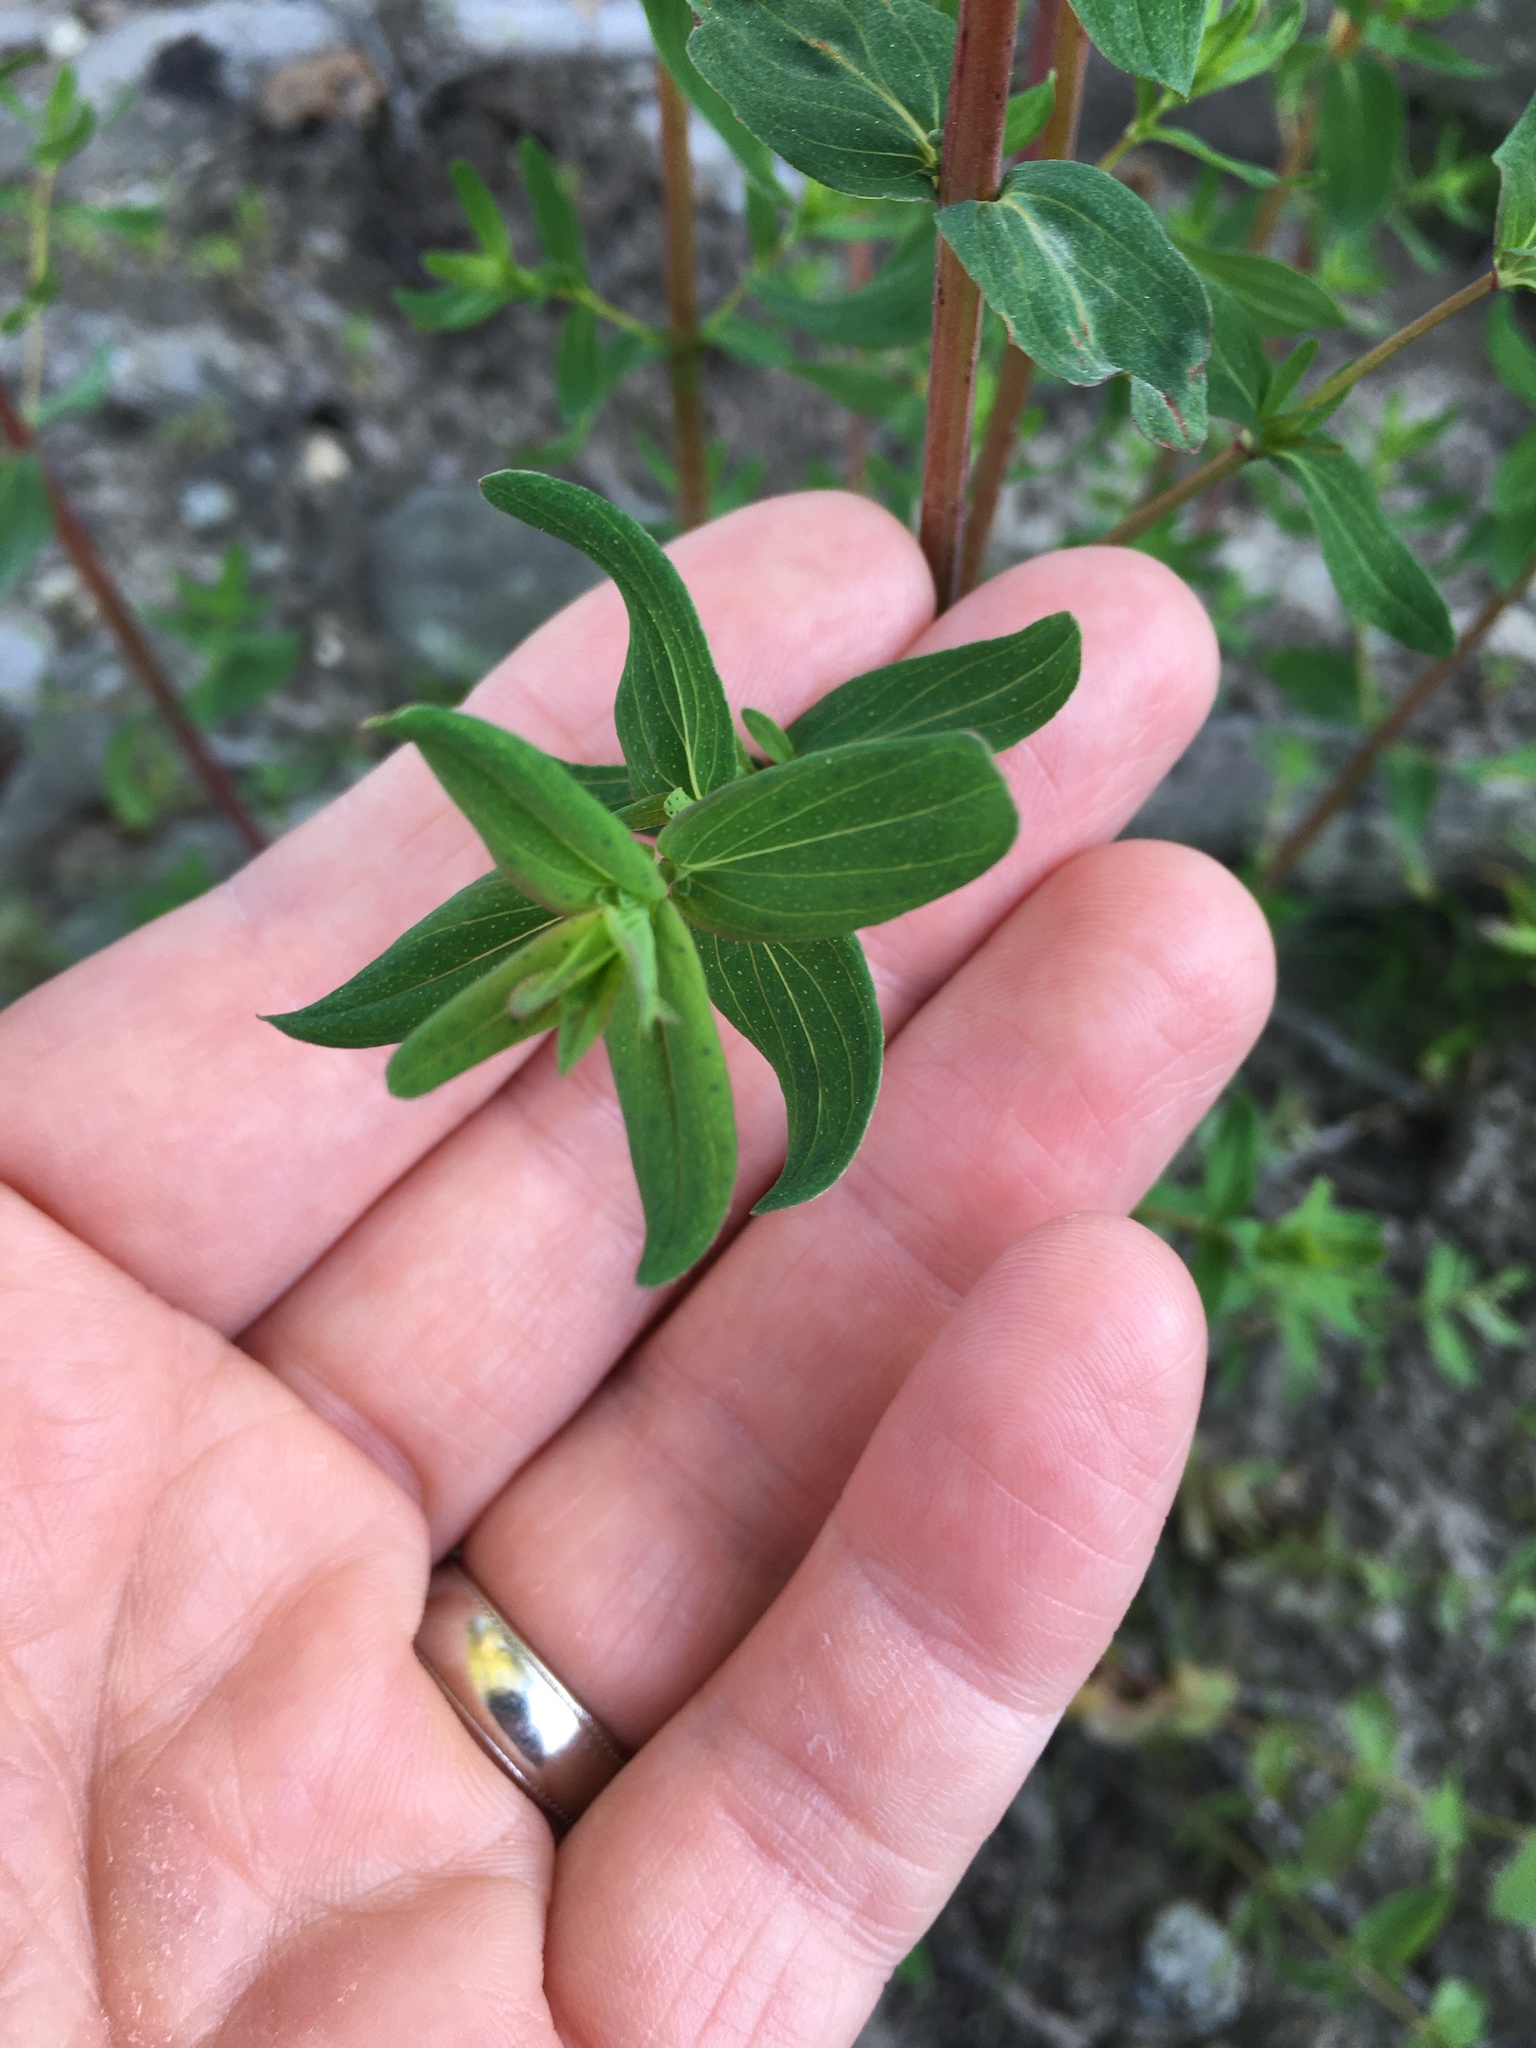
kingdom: Plantae
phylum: Tracheophyta
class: Magnoliopsida
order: Malpighiales
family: Hypericaceae
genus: Hypericum
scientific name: Hypericum perforatum
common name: Common st. johnswort
